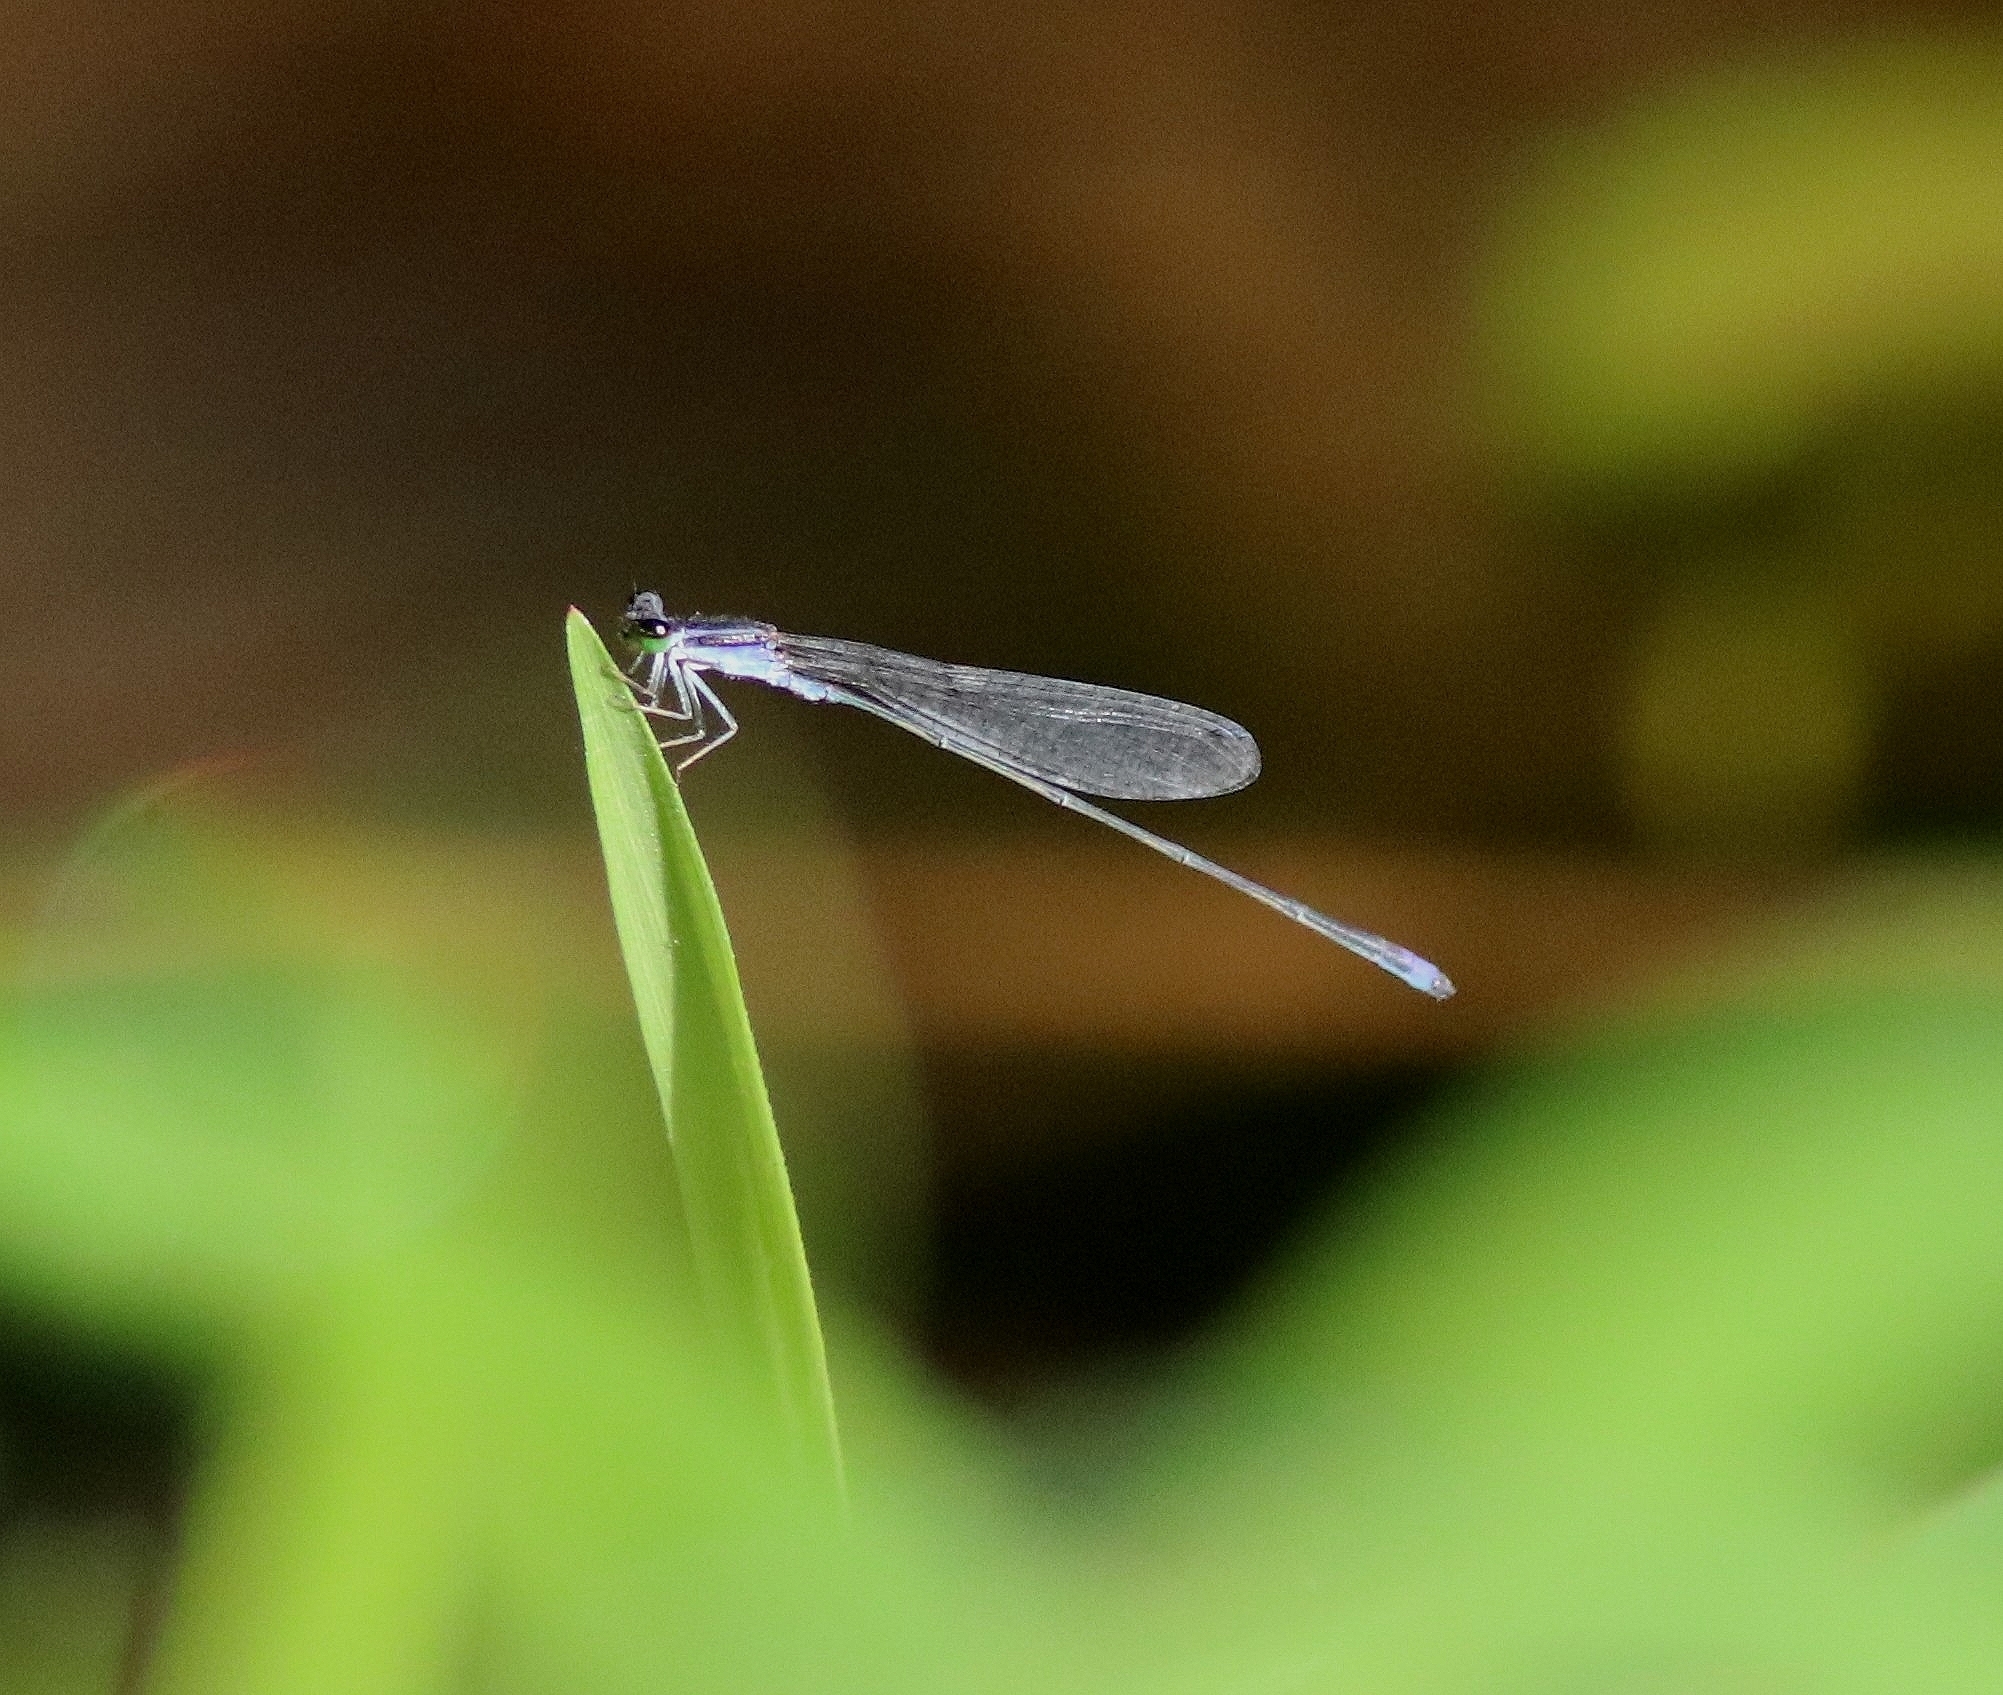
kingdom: Animalia
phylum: Arthropoda
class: Insecta
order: Odonata
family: Coenagrionidae
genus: Aciagrion
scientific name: Aciagrion approximans
